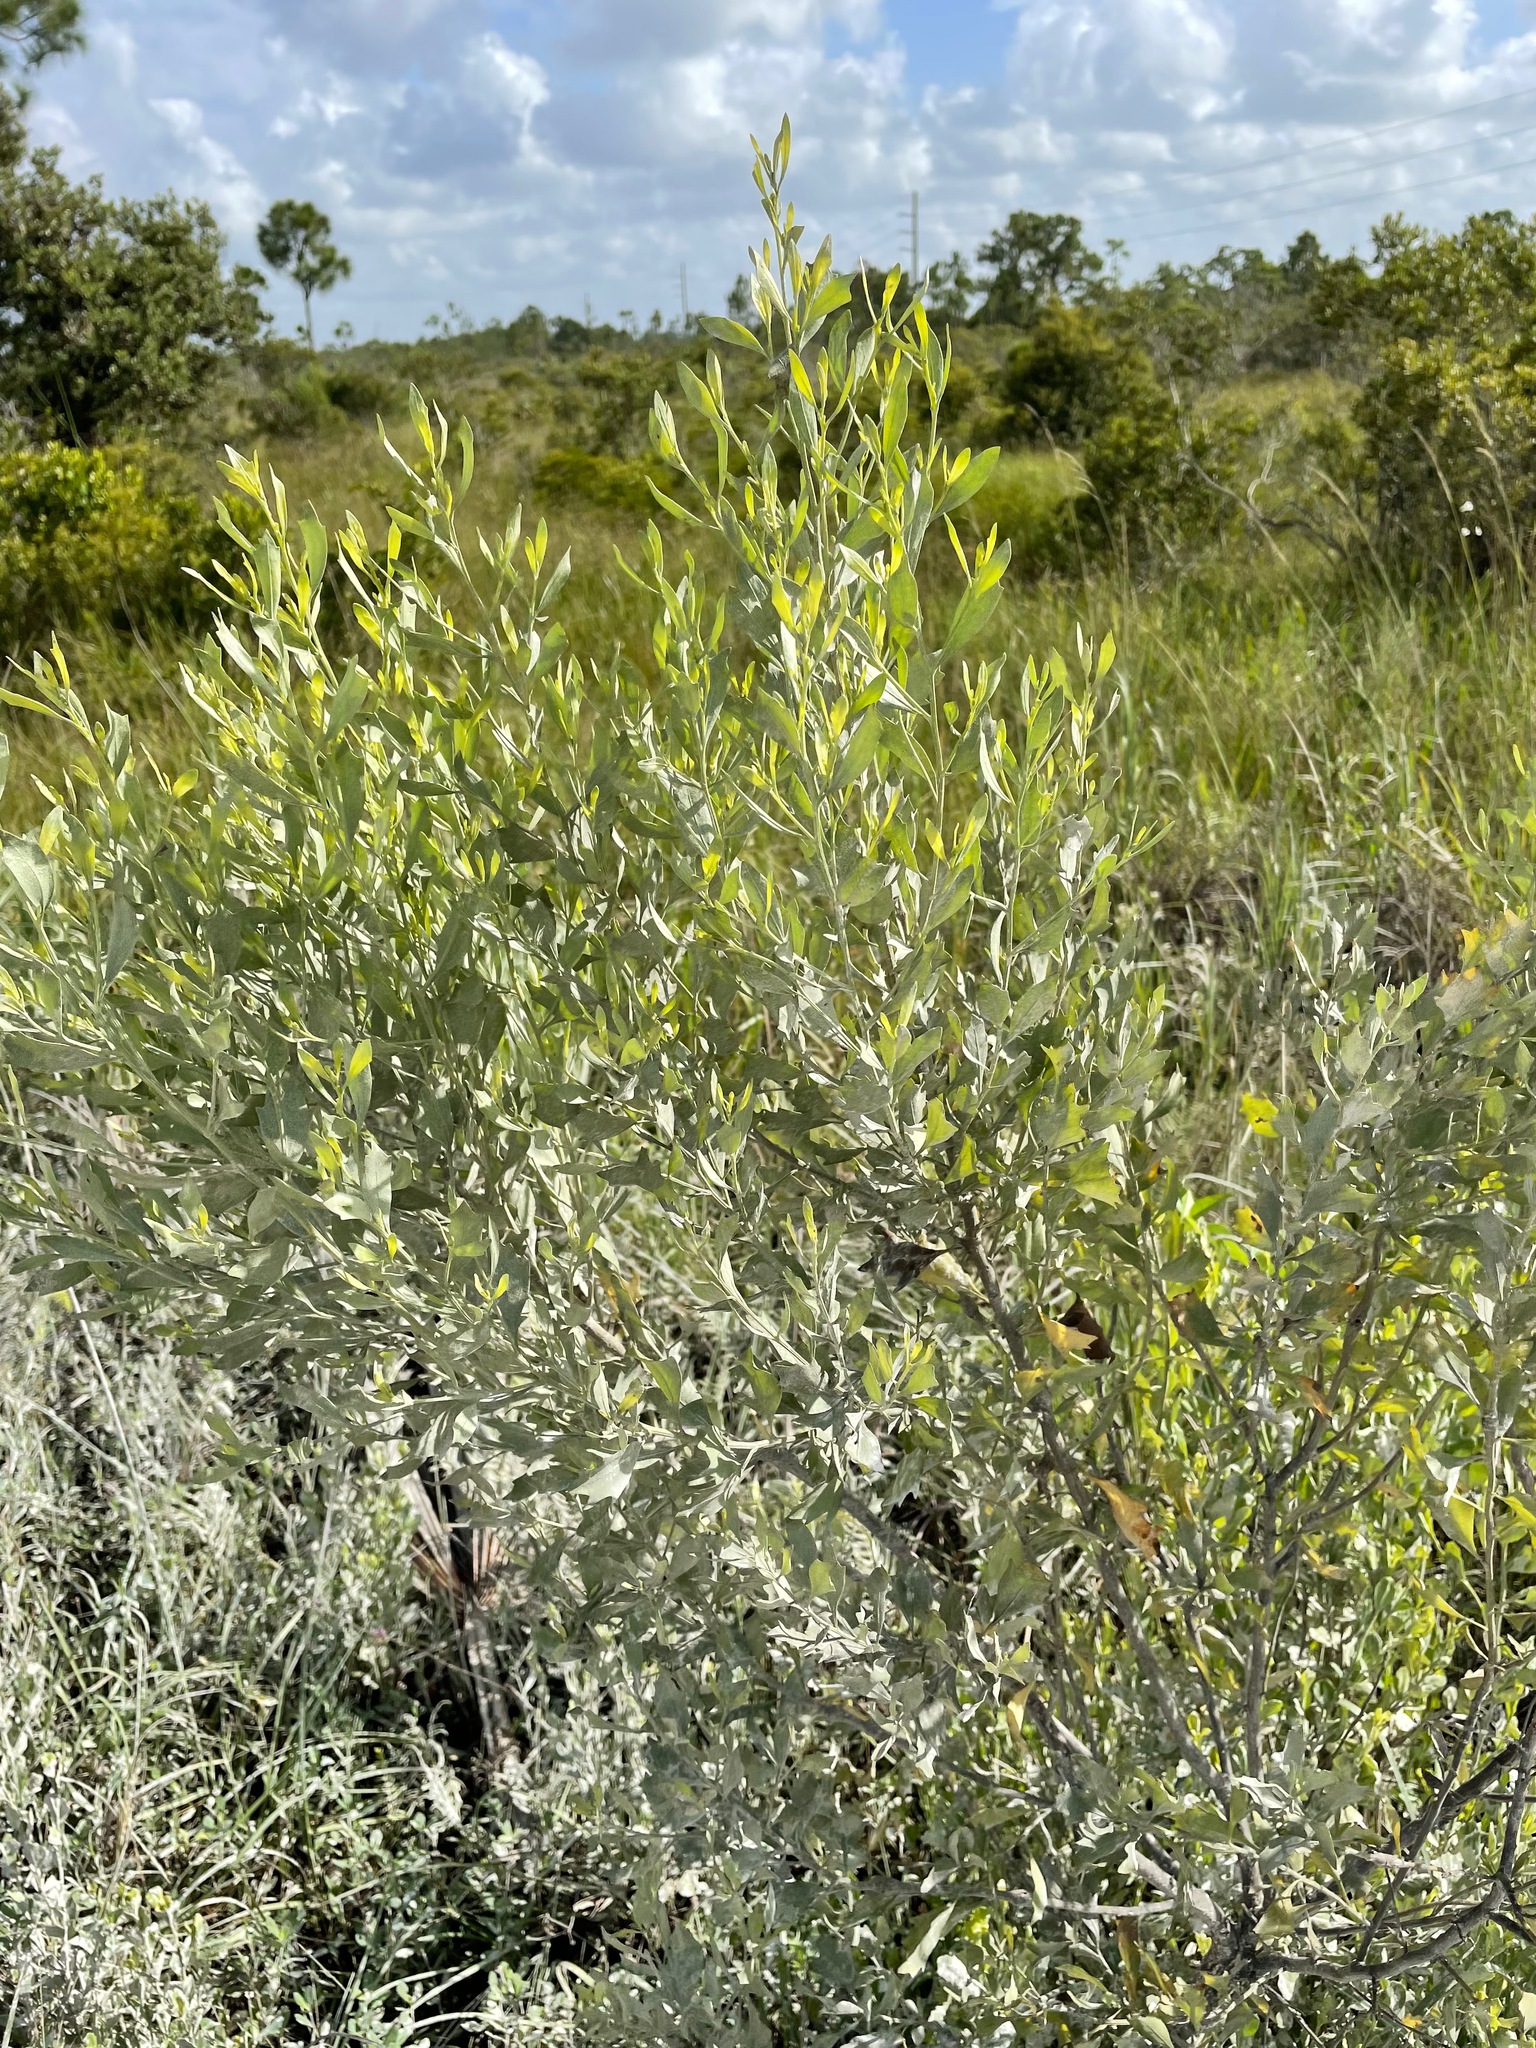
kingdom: Plantae
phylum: Tracheophyta
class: Magnoliopsida
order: Asterales
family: Asteraceae
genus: Baccharis
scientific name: Baccharis halimifolia
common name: Eastern baccharis
